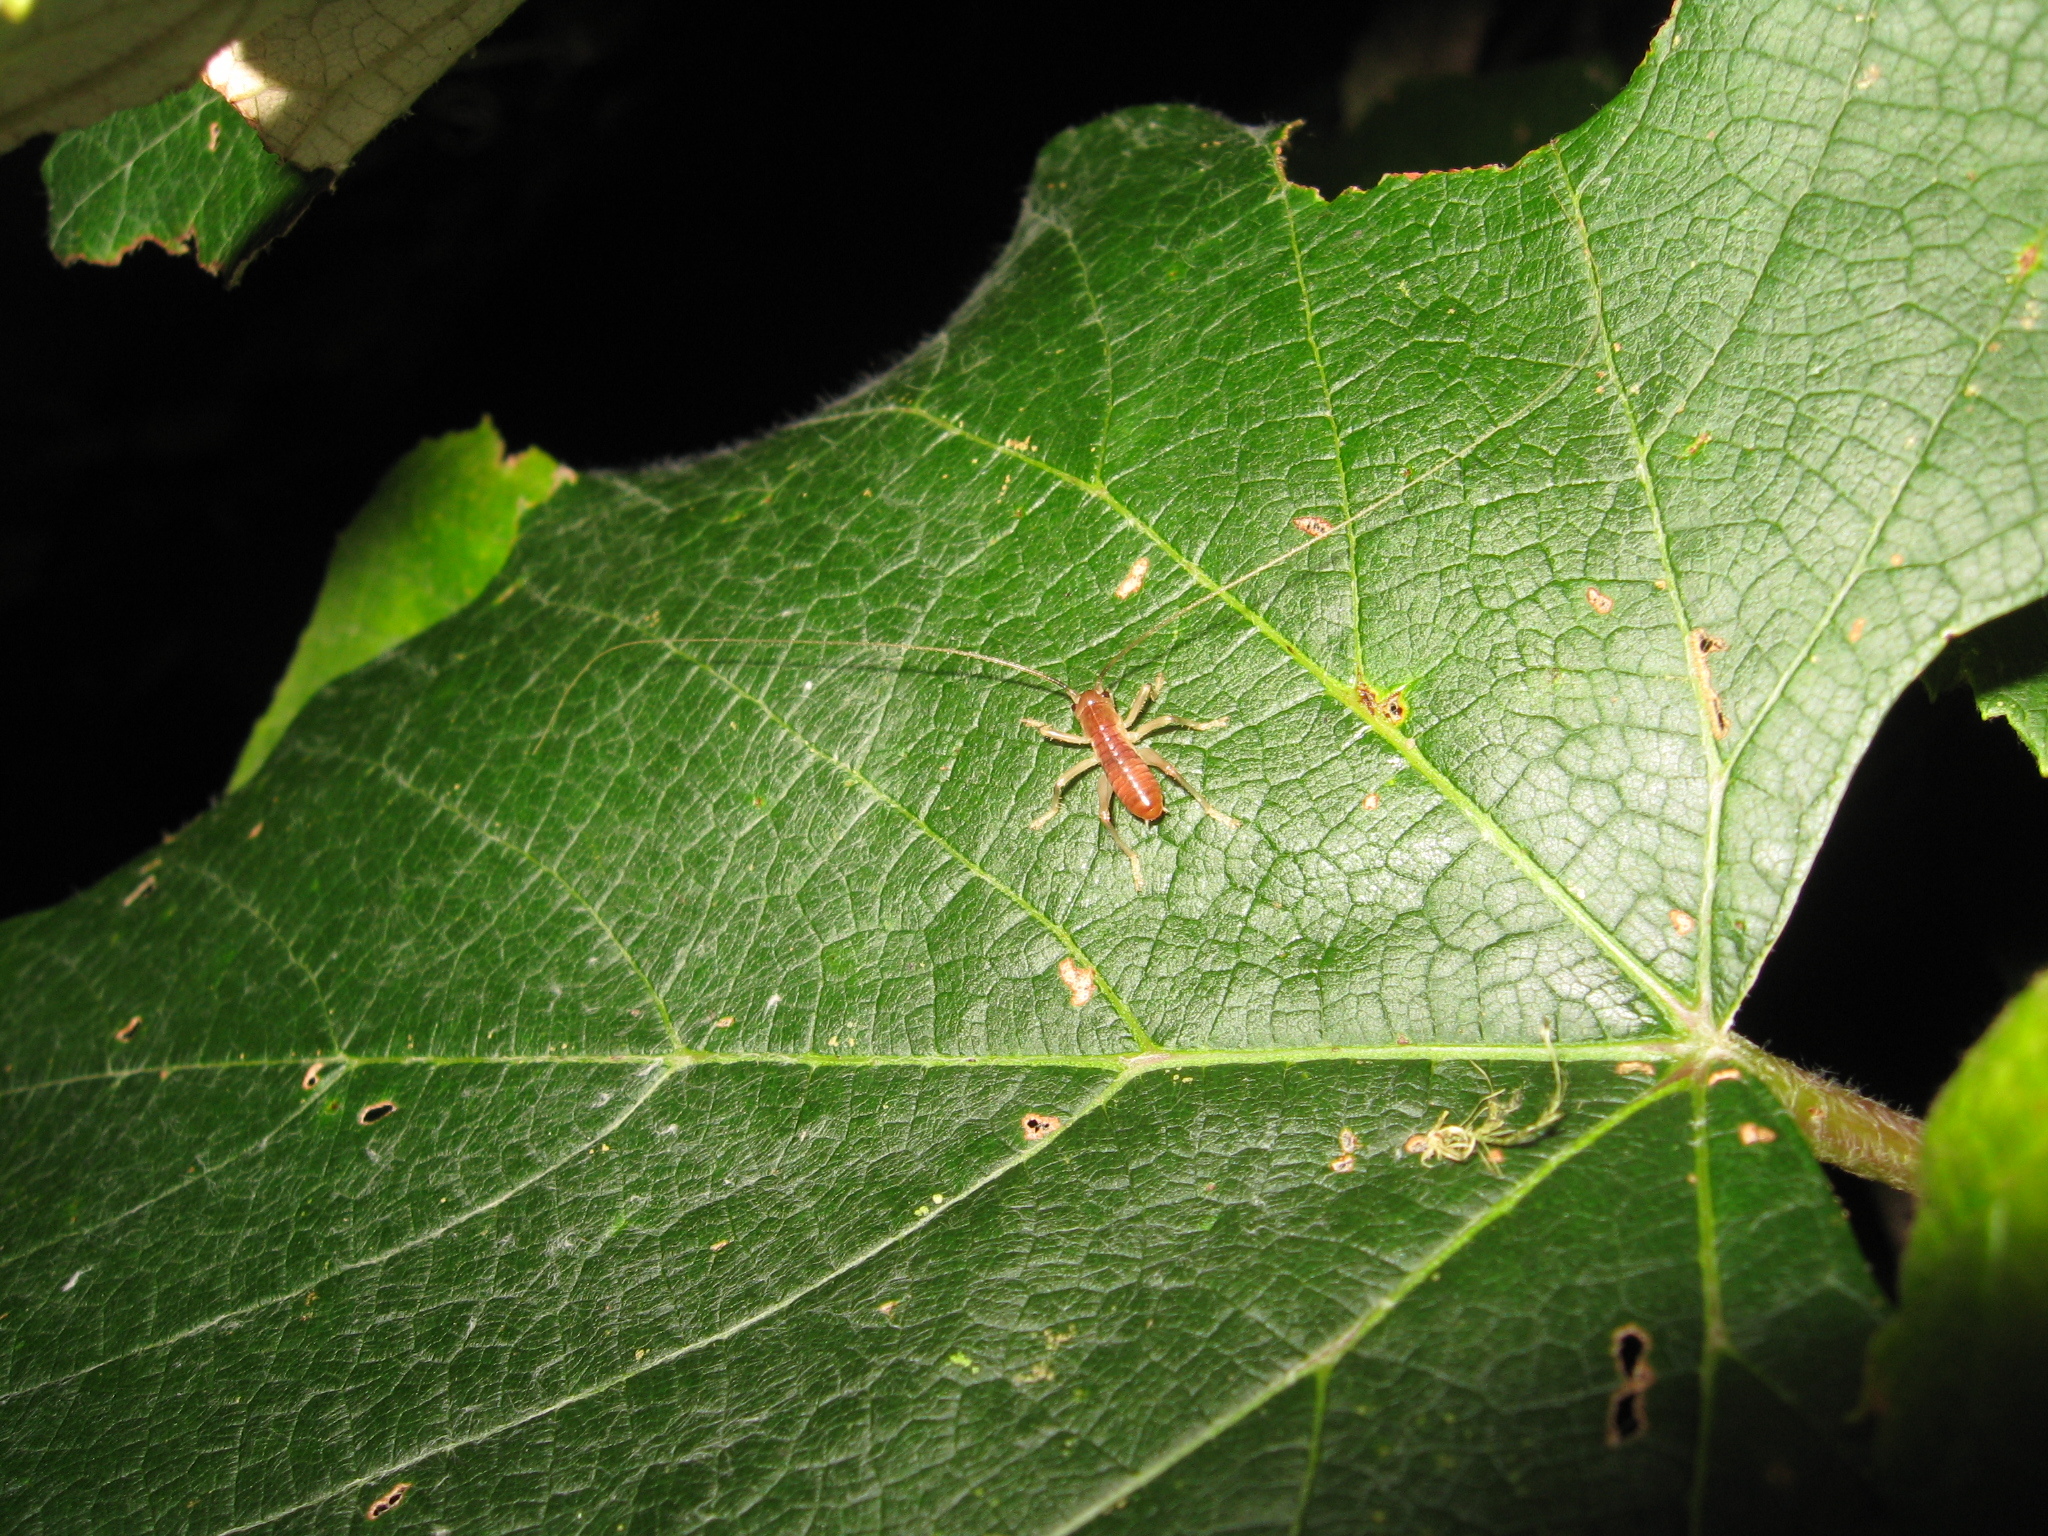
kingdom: Animalia
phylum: Arthropoda
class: Insecta
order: Orthoptera
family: Gryllacrididae
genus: Camptonotus
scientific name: Camptonotus carolinensis
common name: Carolina leaf-roller
